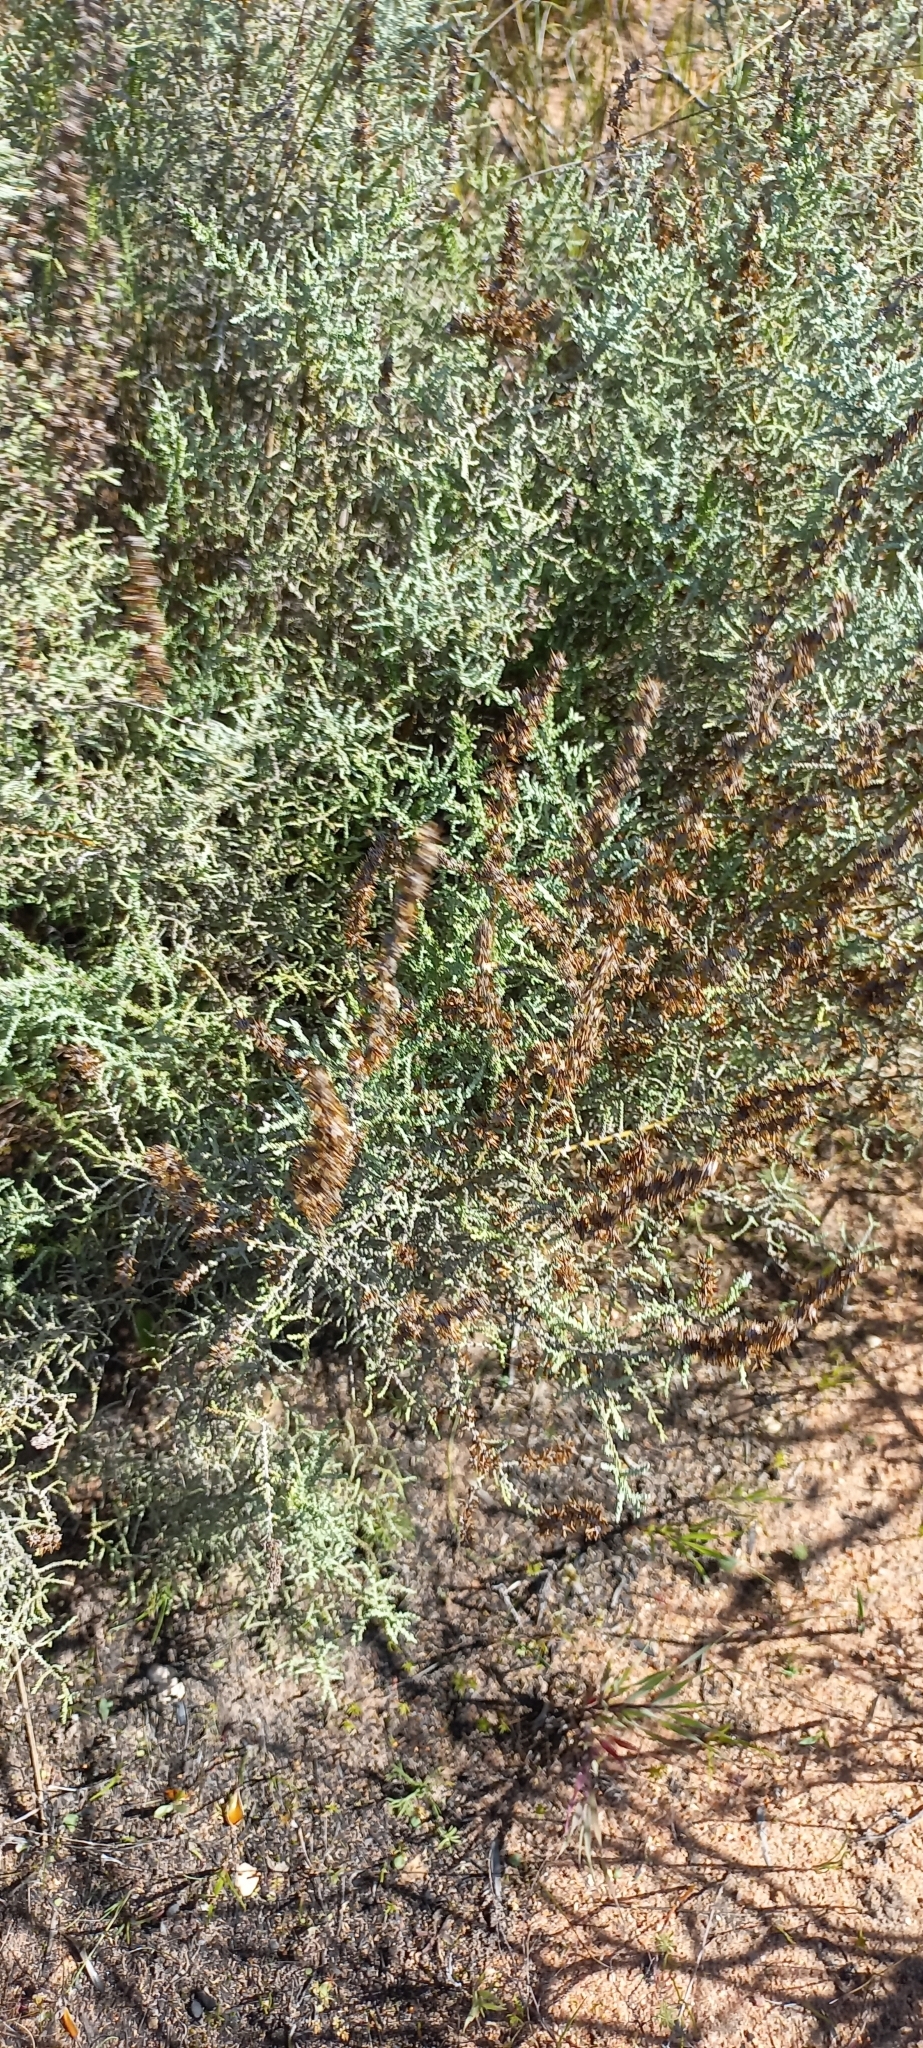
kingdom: Plantae
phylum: Tracheophyta
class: Magnoliopsida
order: Asterales
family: Asteraceae
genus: Seriphium
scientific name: Seriphium plumosum
